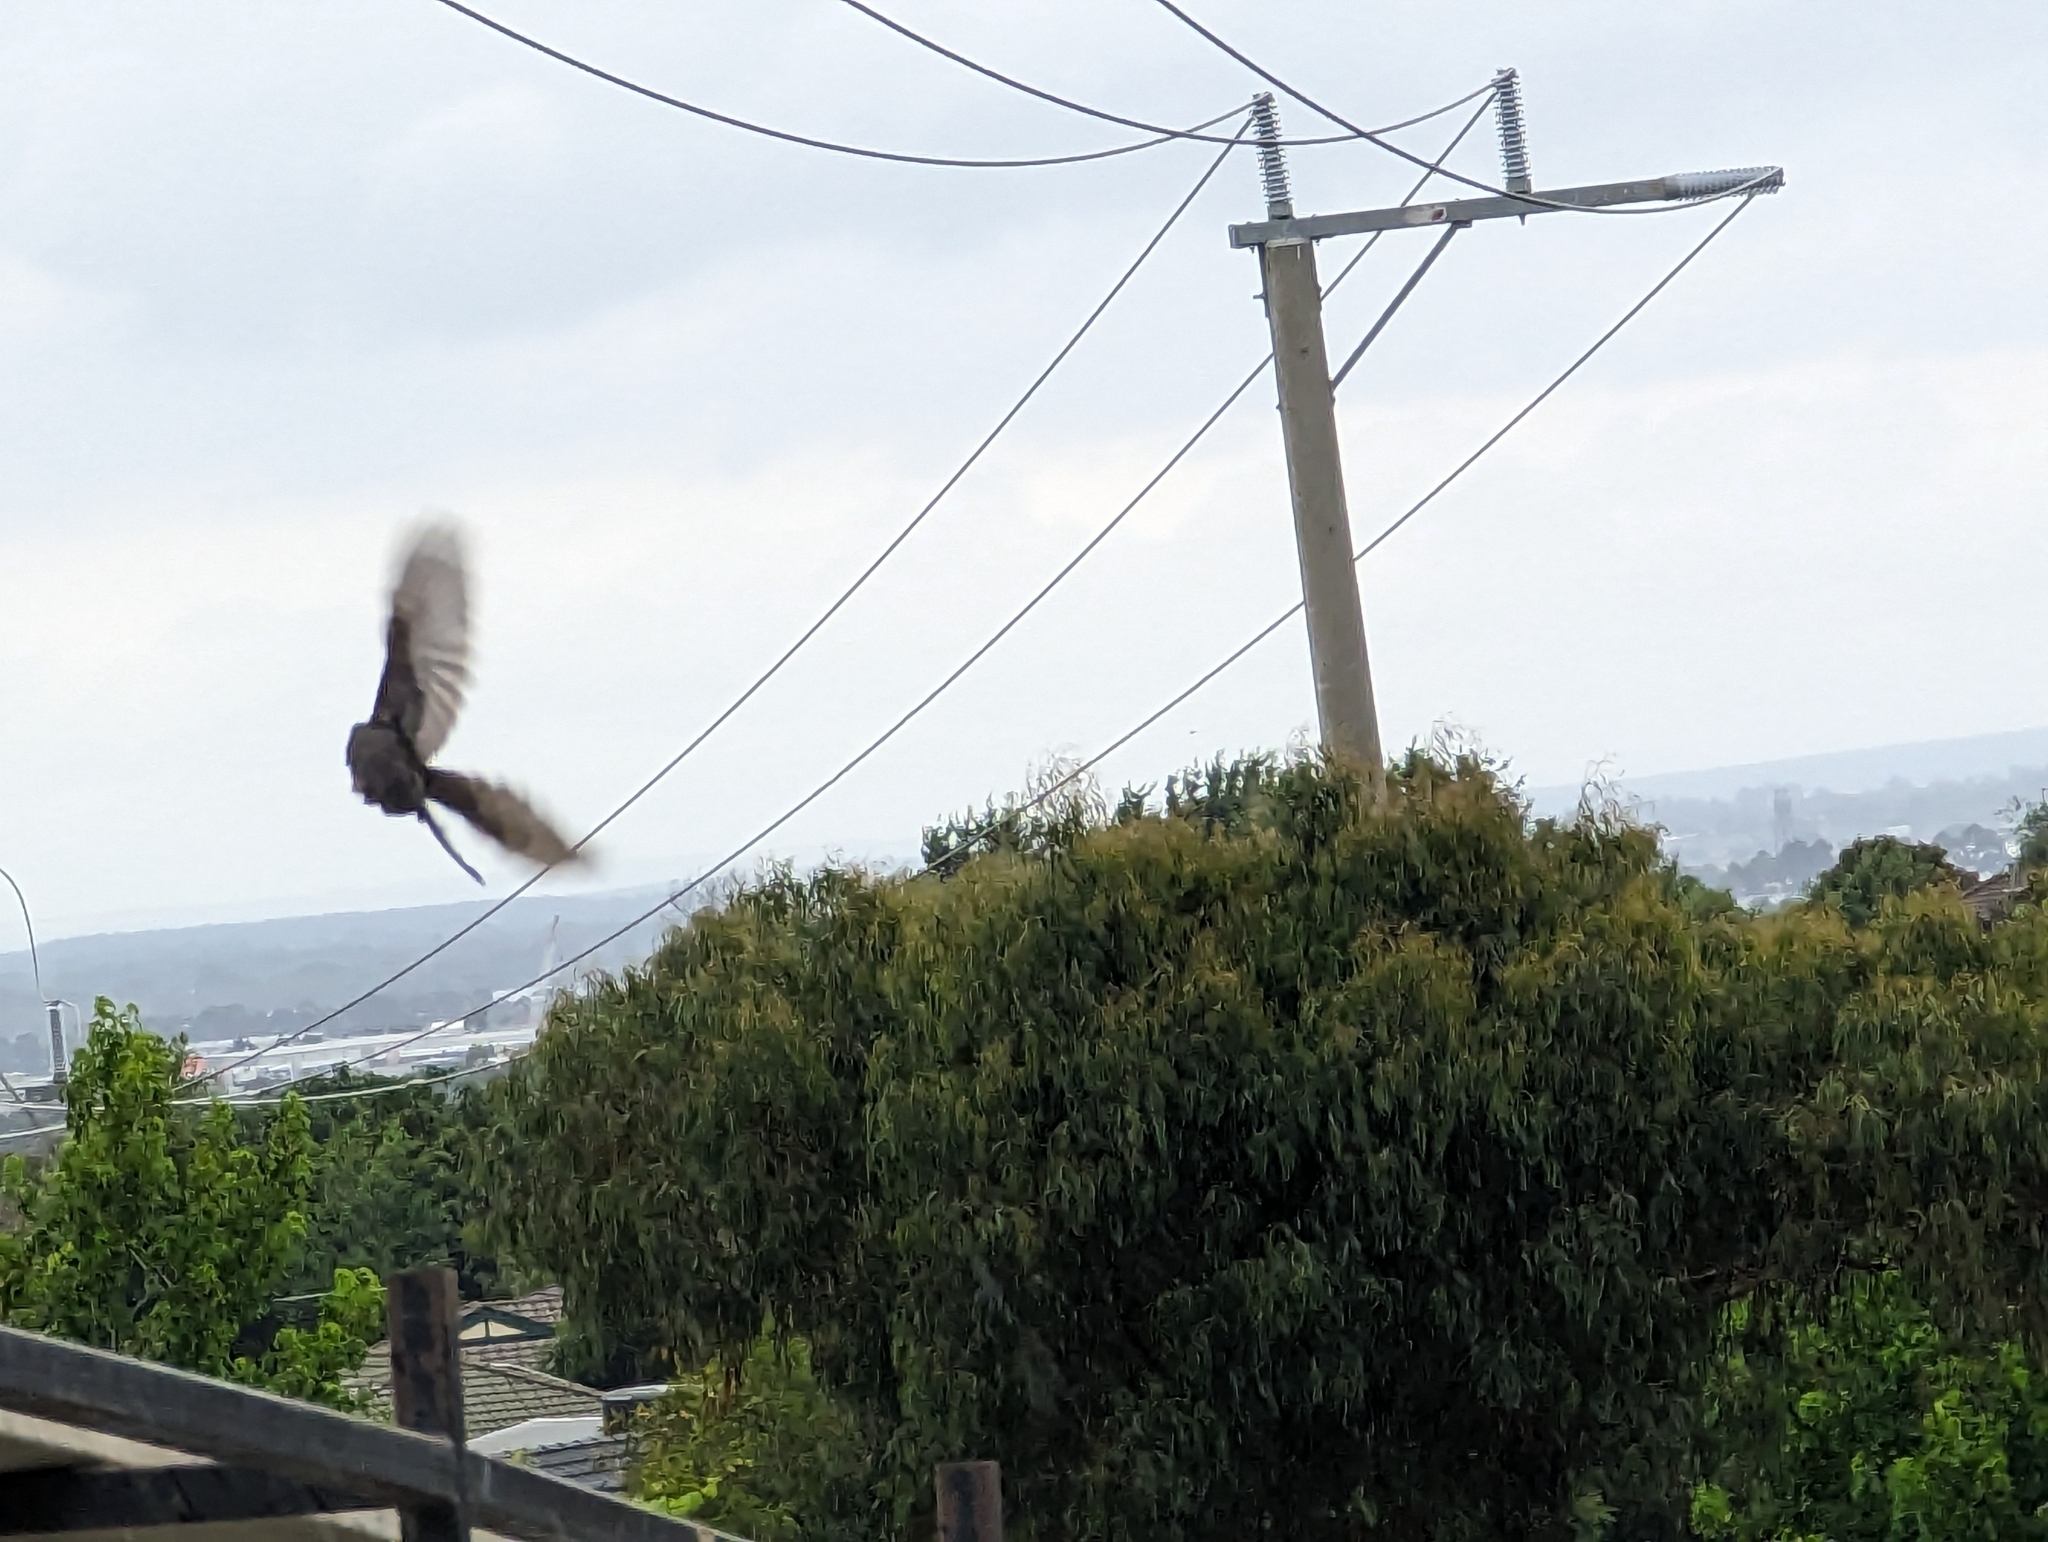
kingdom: Animalia
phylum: Chordata
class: Aves
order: Passeriformes
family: Turdidae
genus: Turdus
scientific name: Turdus merula
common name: Common blackbird
